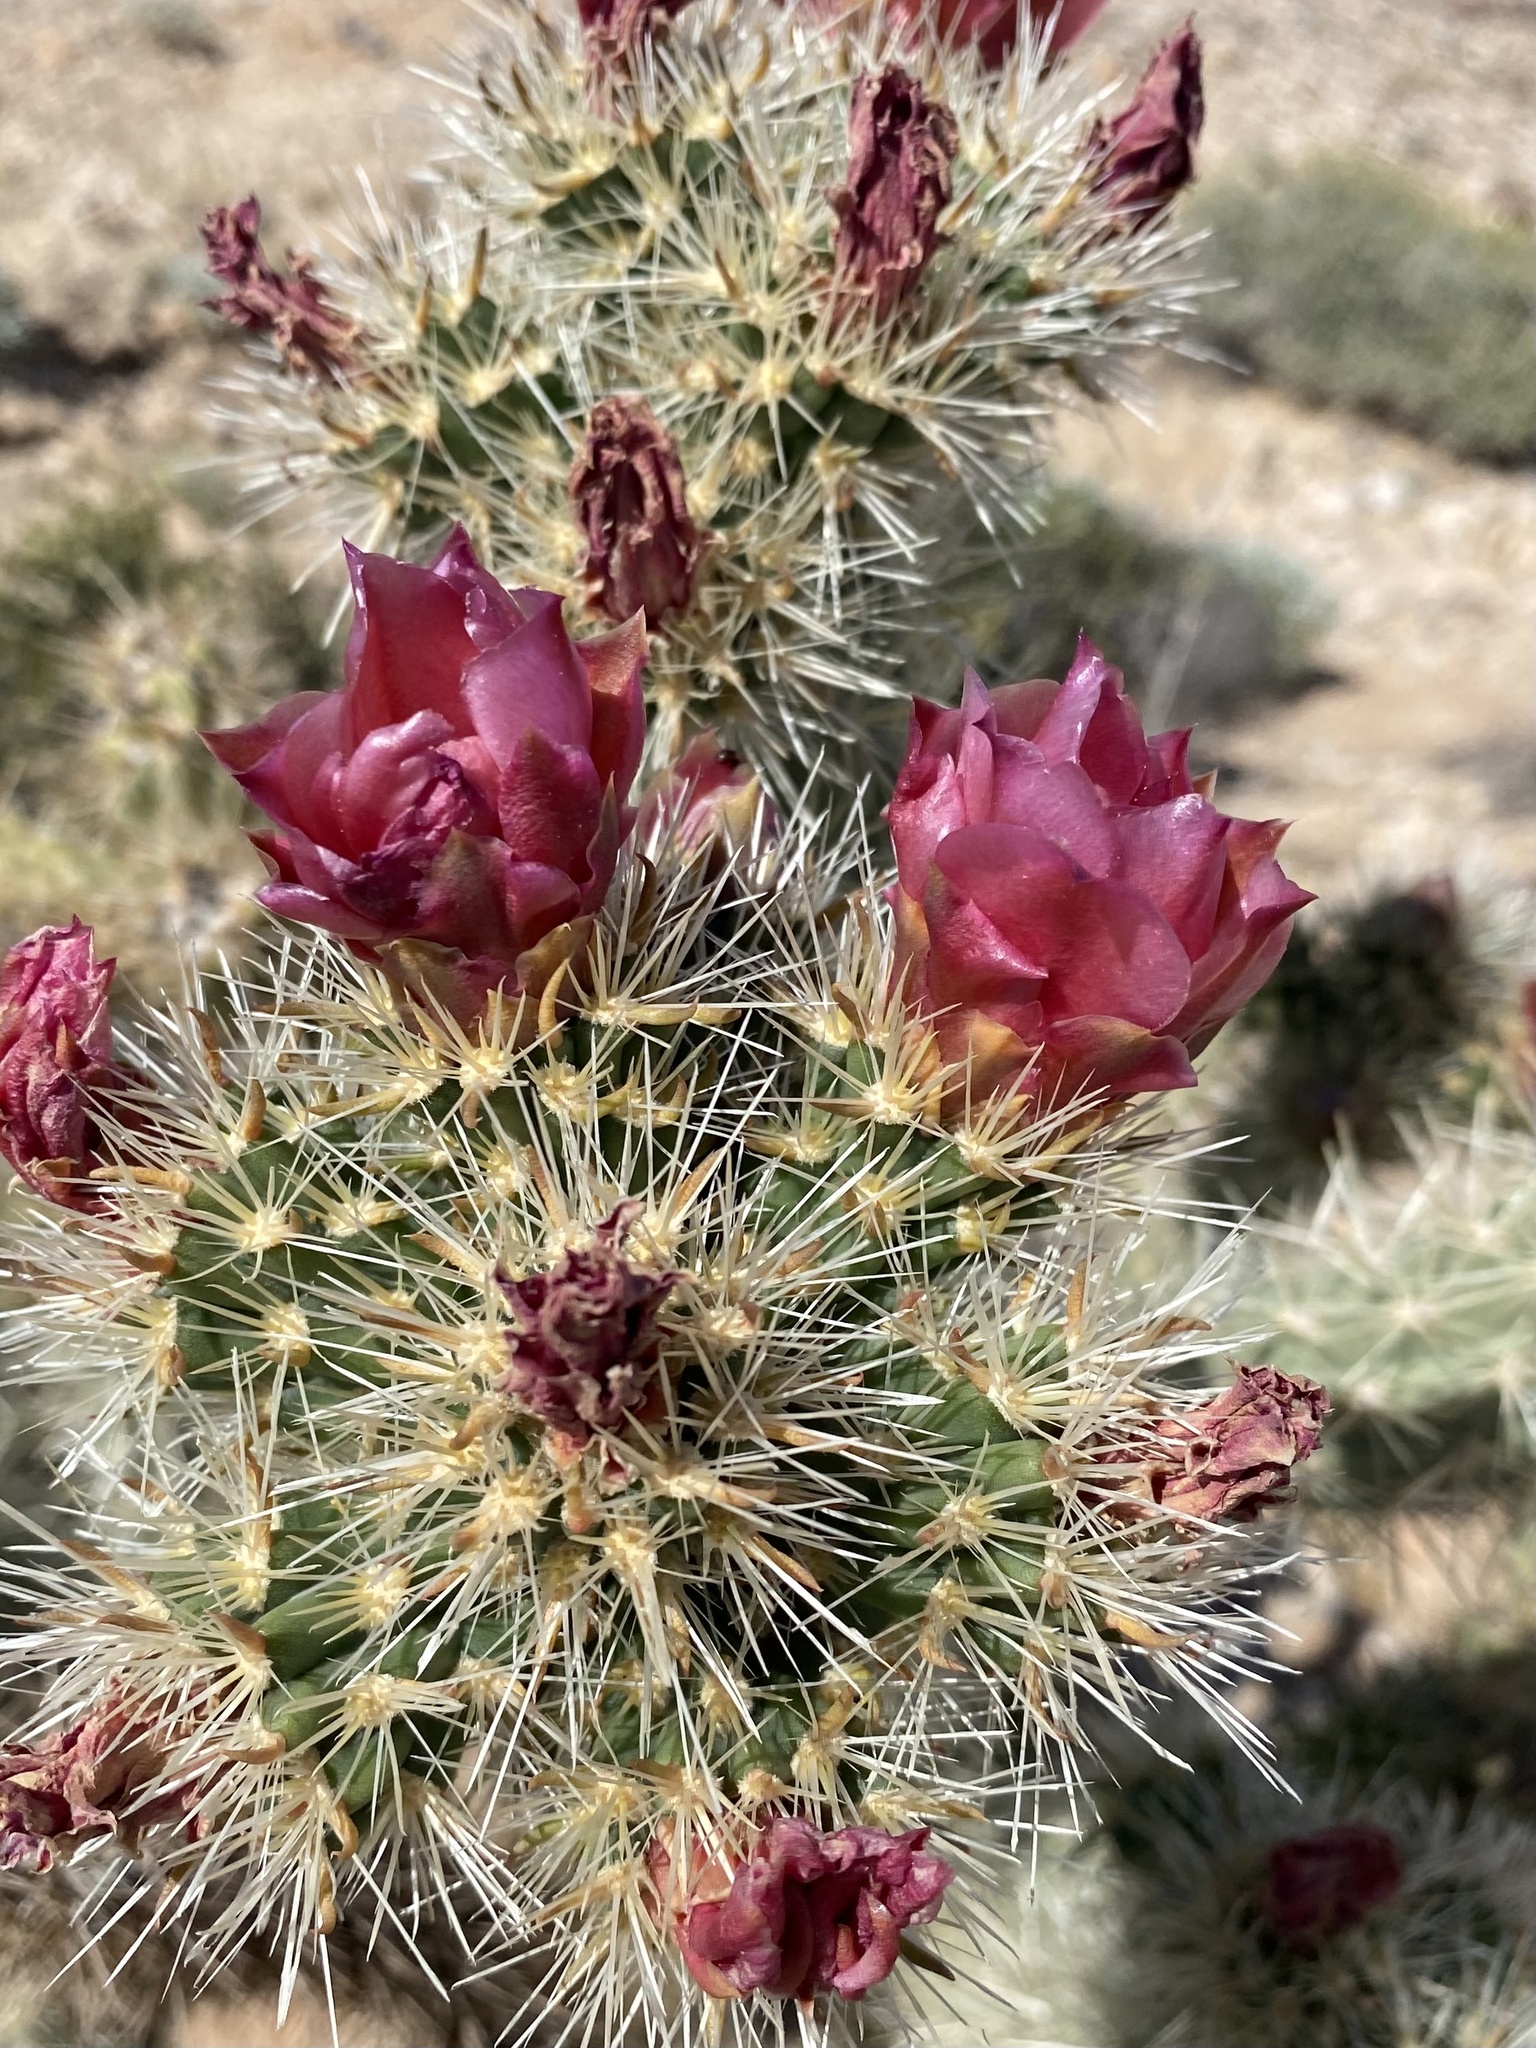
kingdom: Plantae
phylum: Tracheophyta
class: Magnoliopsida
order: Caryophyllales
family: Cactaceae
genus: Cylindropuntia
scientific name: Cylindropuntia wolfii
